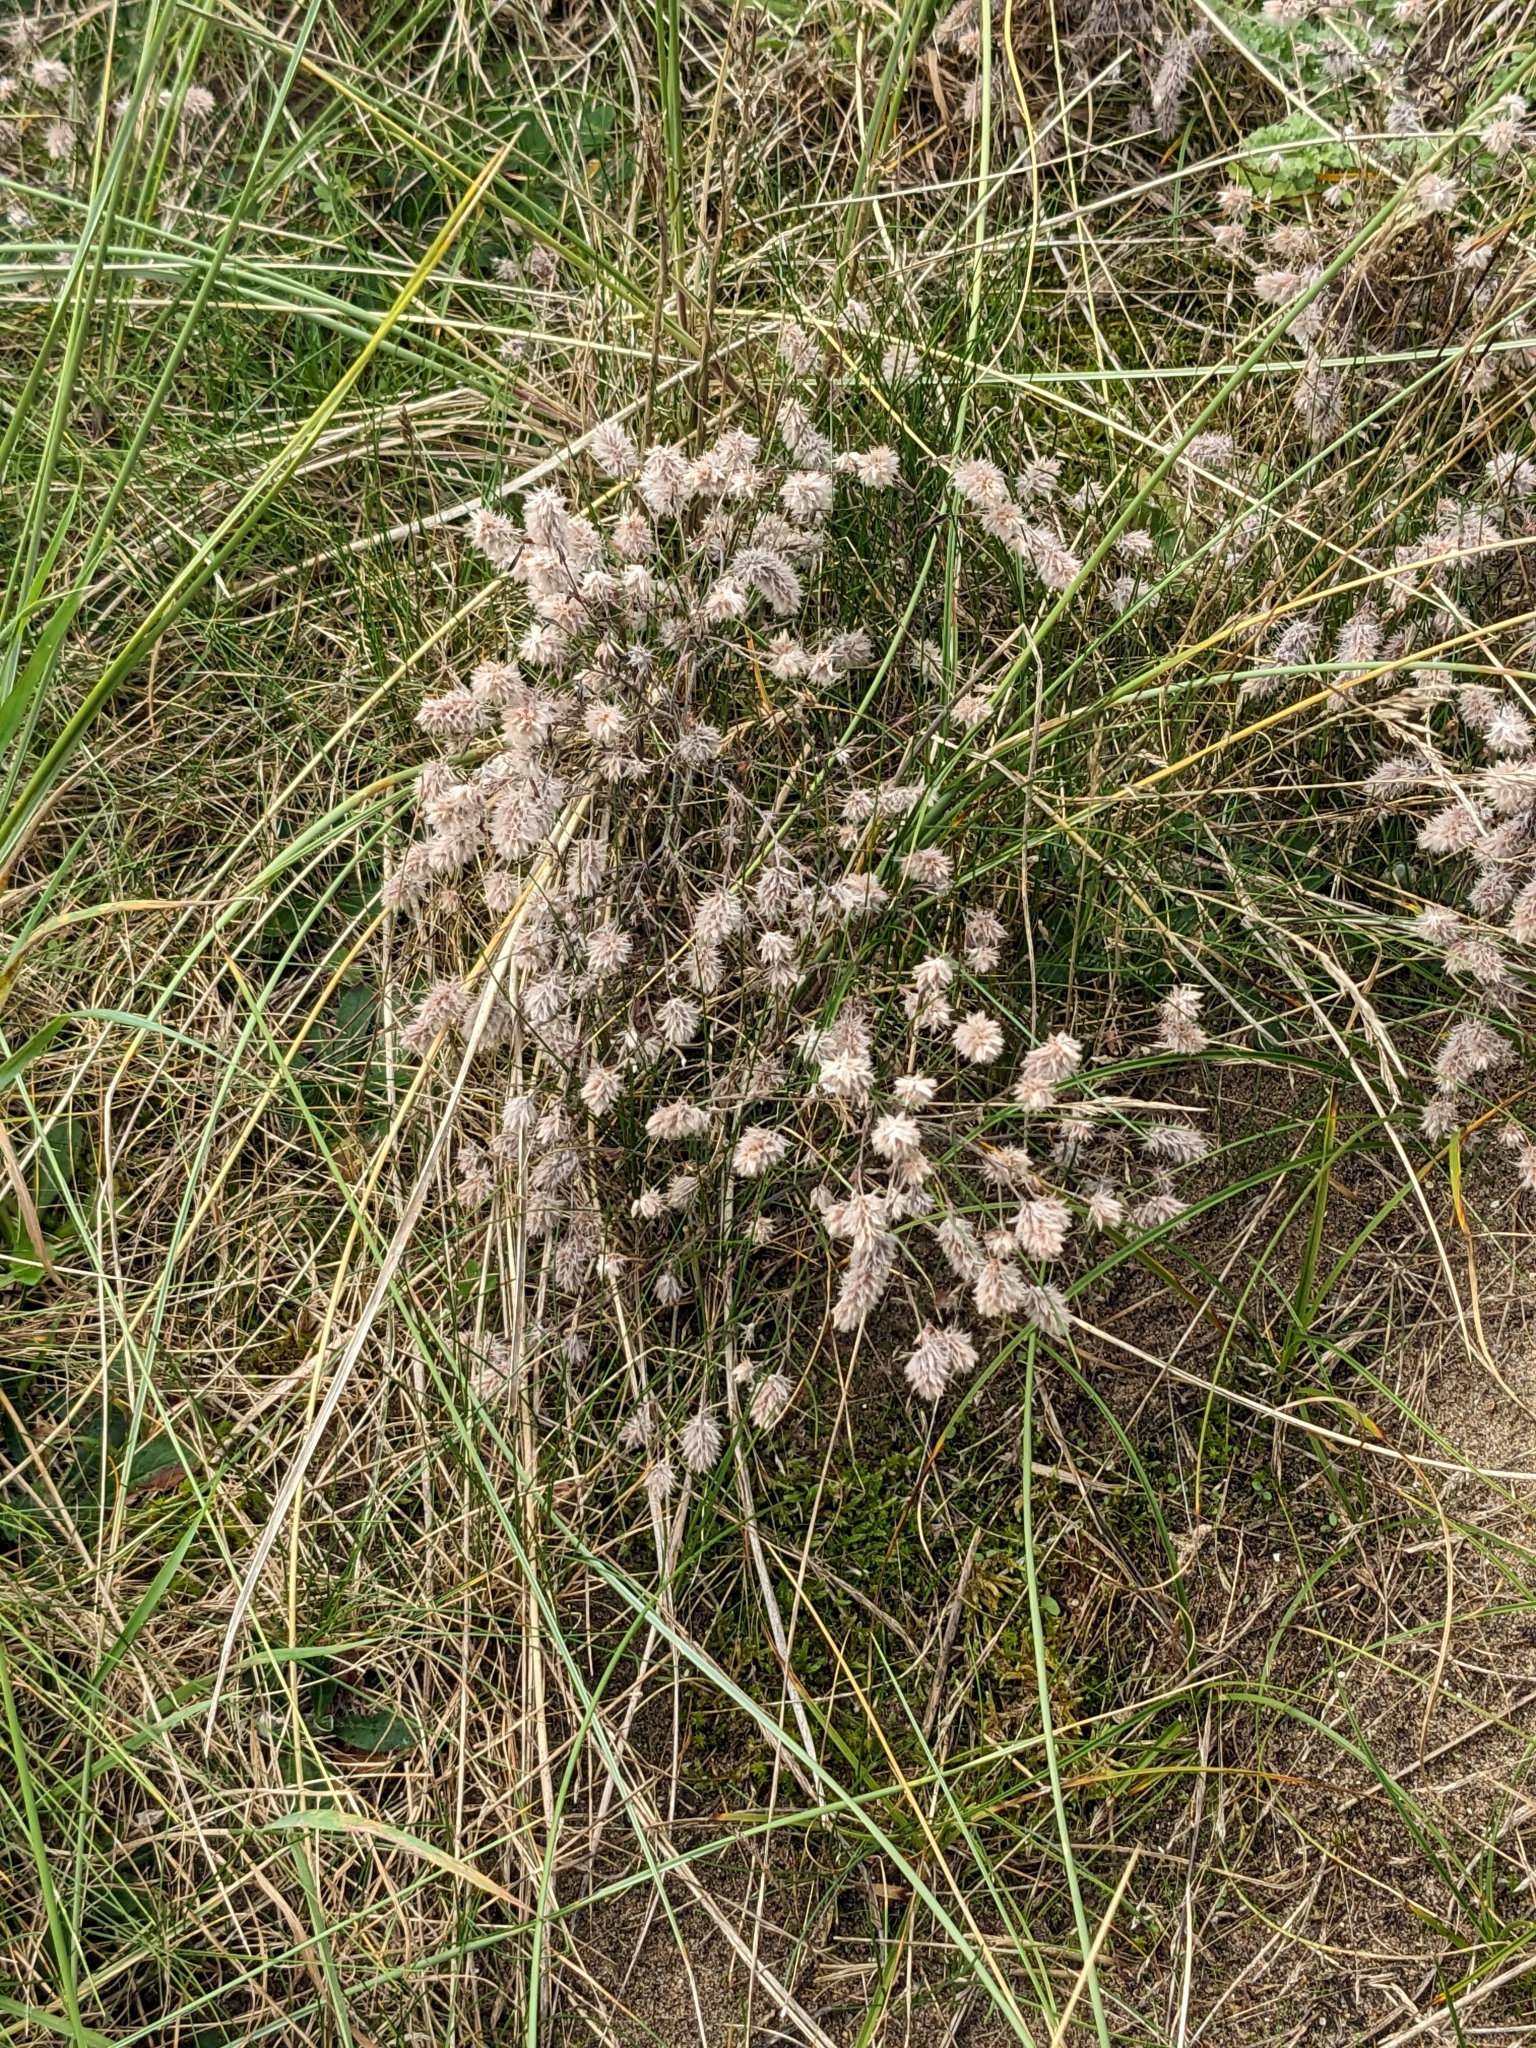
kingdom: Plantae
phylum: Tracheophyta
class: Magnoliopsida
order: Fabales
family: Fabaceae
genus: Trifolium
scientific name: Trifolium arvense
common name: Hare's-foot clover
